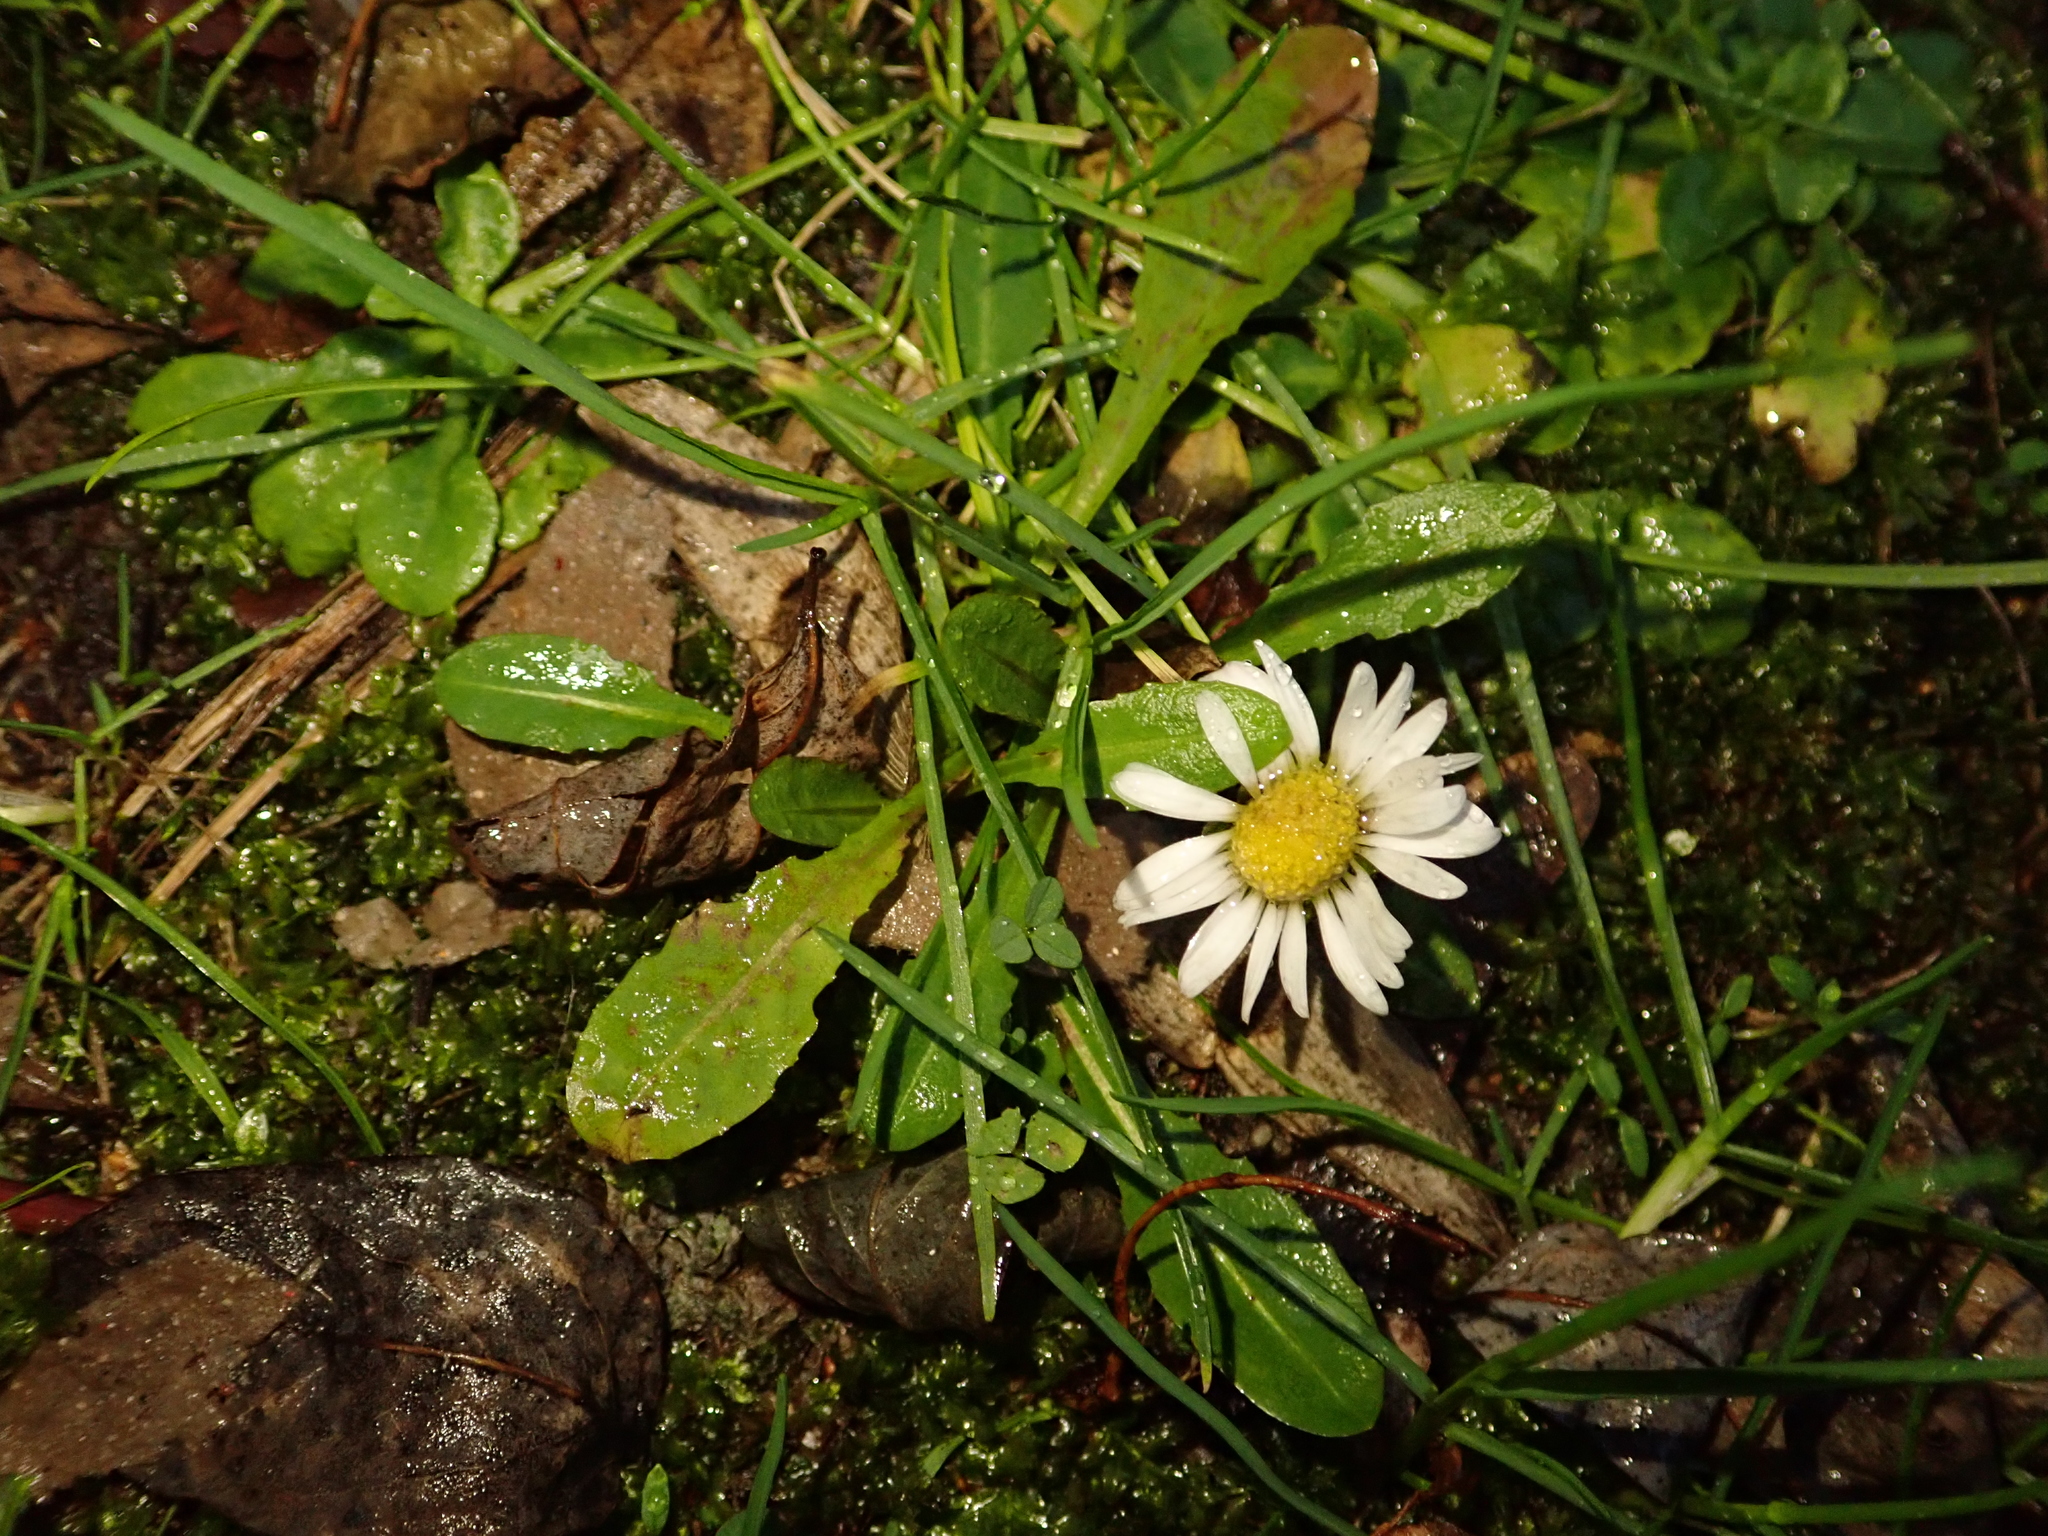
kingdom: Plantae
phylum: Tracheophyta
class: Magnoliopsida
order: Asterales
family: Asteraceae
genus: Bellis
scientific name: Bellis perennis
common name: Lawndaisy
